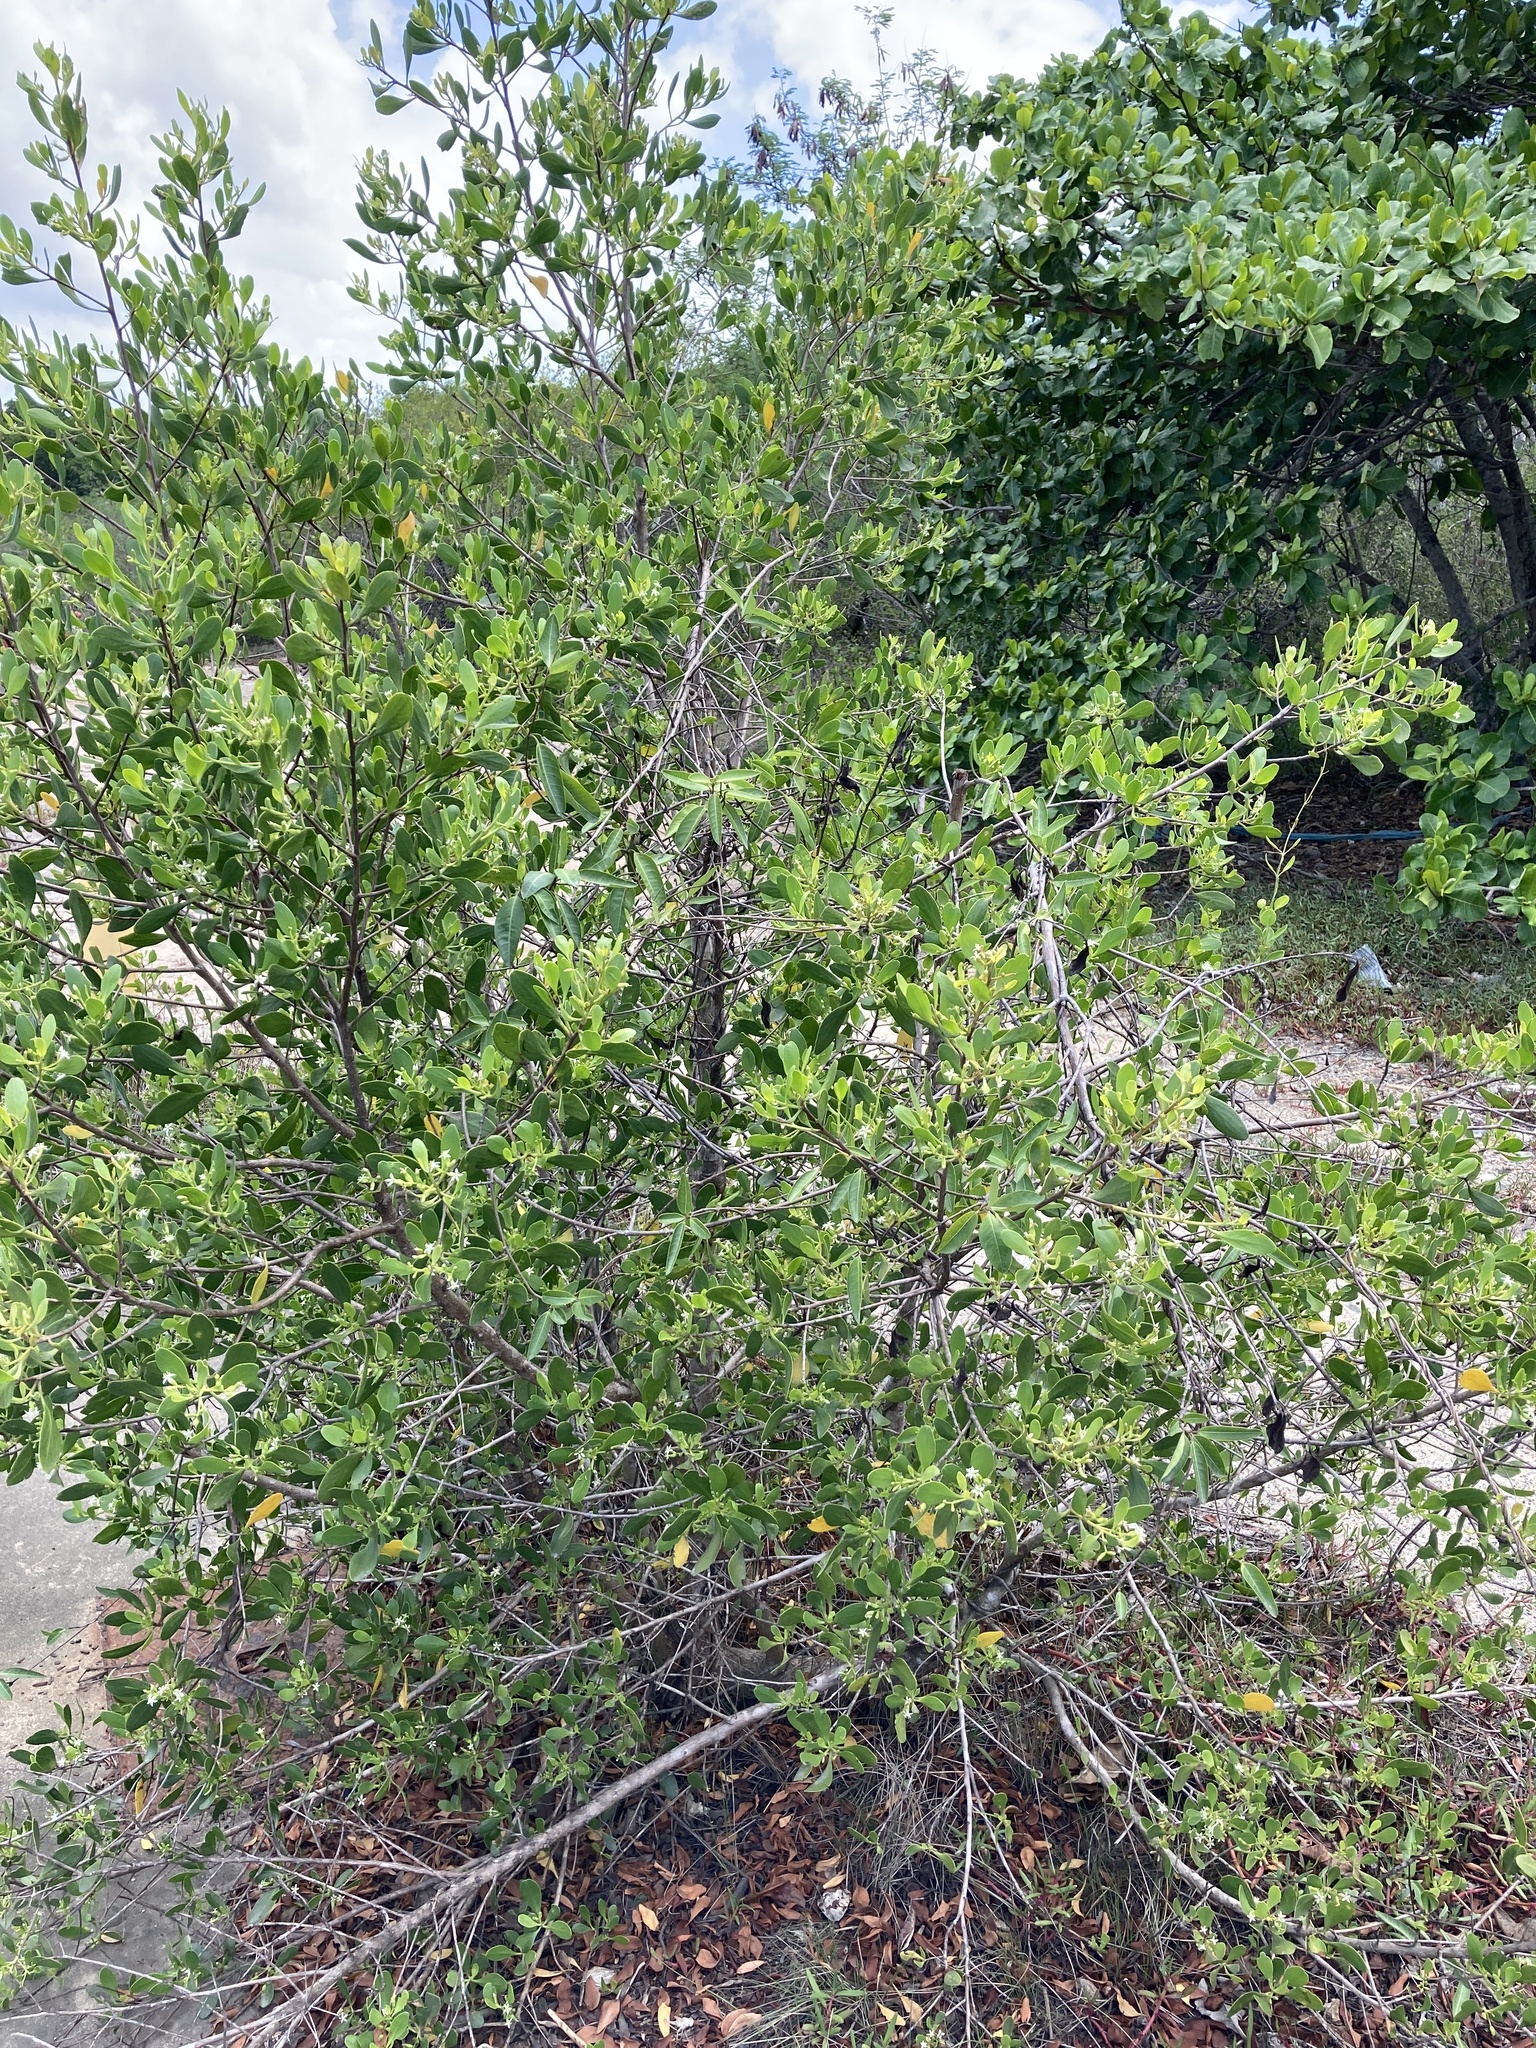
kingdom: Plantae
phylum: Tracheophyta
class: Magnoliopsida
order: Myrtales
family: Combretaceae
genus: Lumnitzera
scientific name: Lumnitzera racemosa
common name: White-flowered black mangrove
